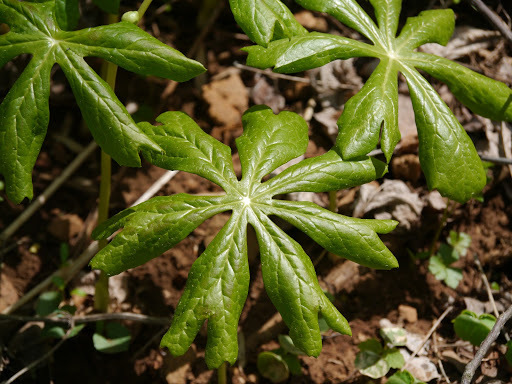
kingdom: Plantae
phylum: Tracheophyta
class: Magnoliopsida
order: Ranunculales
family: Berberidaceae
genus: Podophyllum
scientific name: Podophyllum peltatum
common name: Wild mandrake
